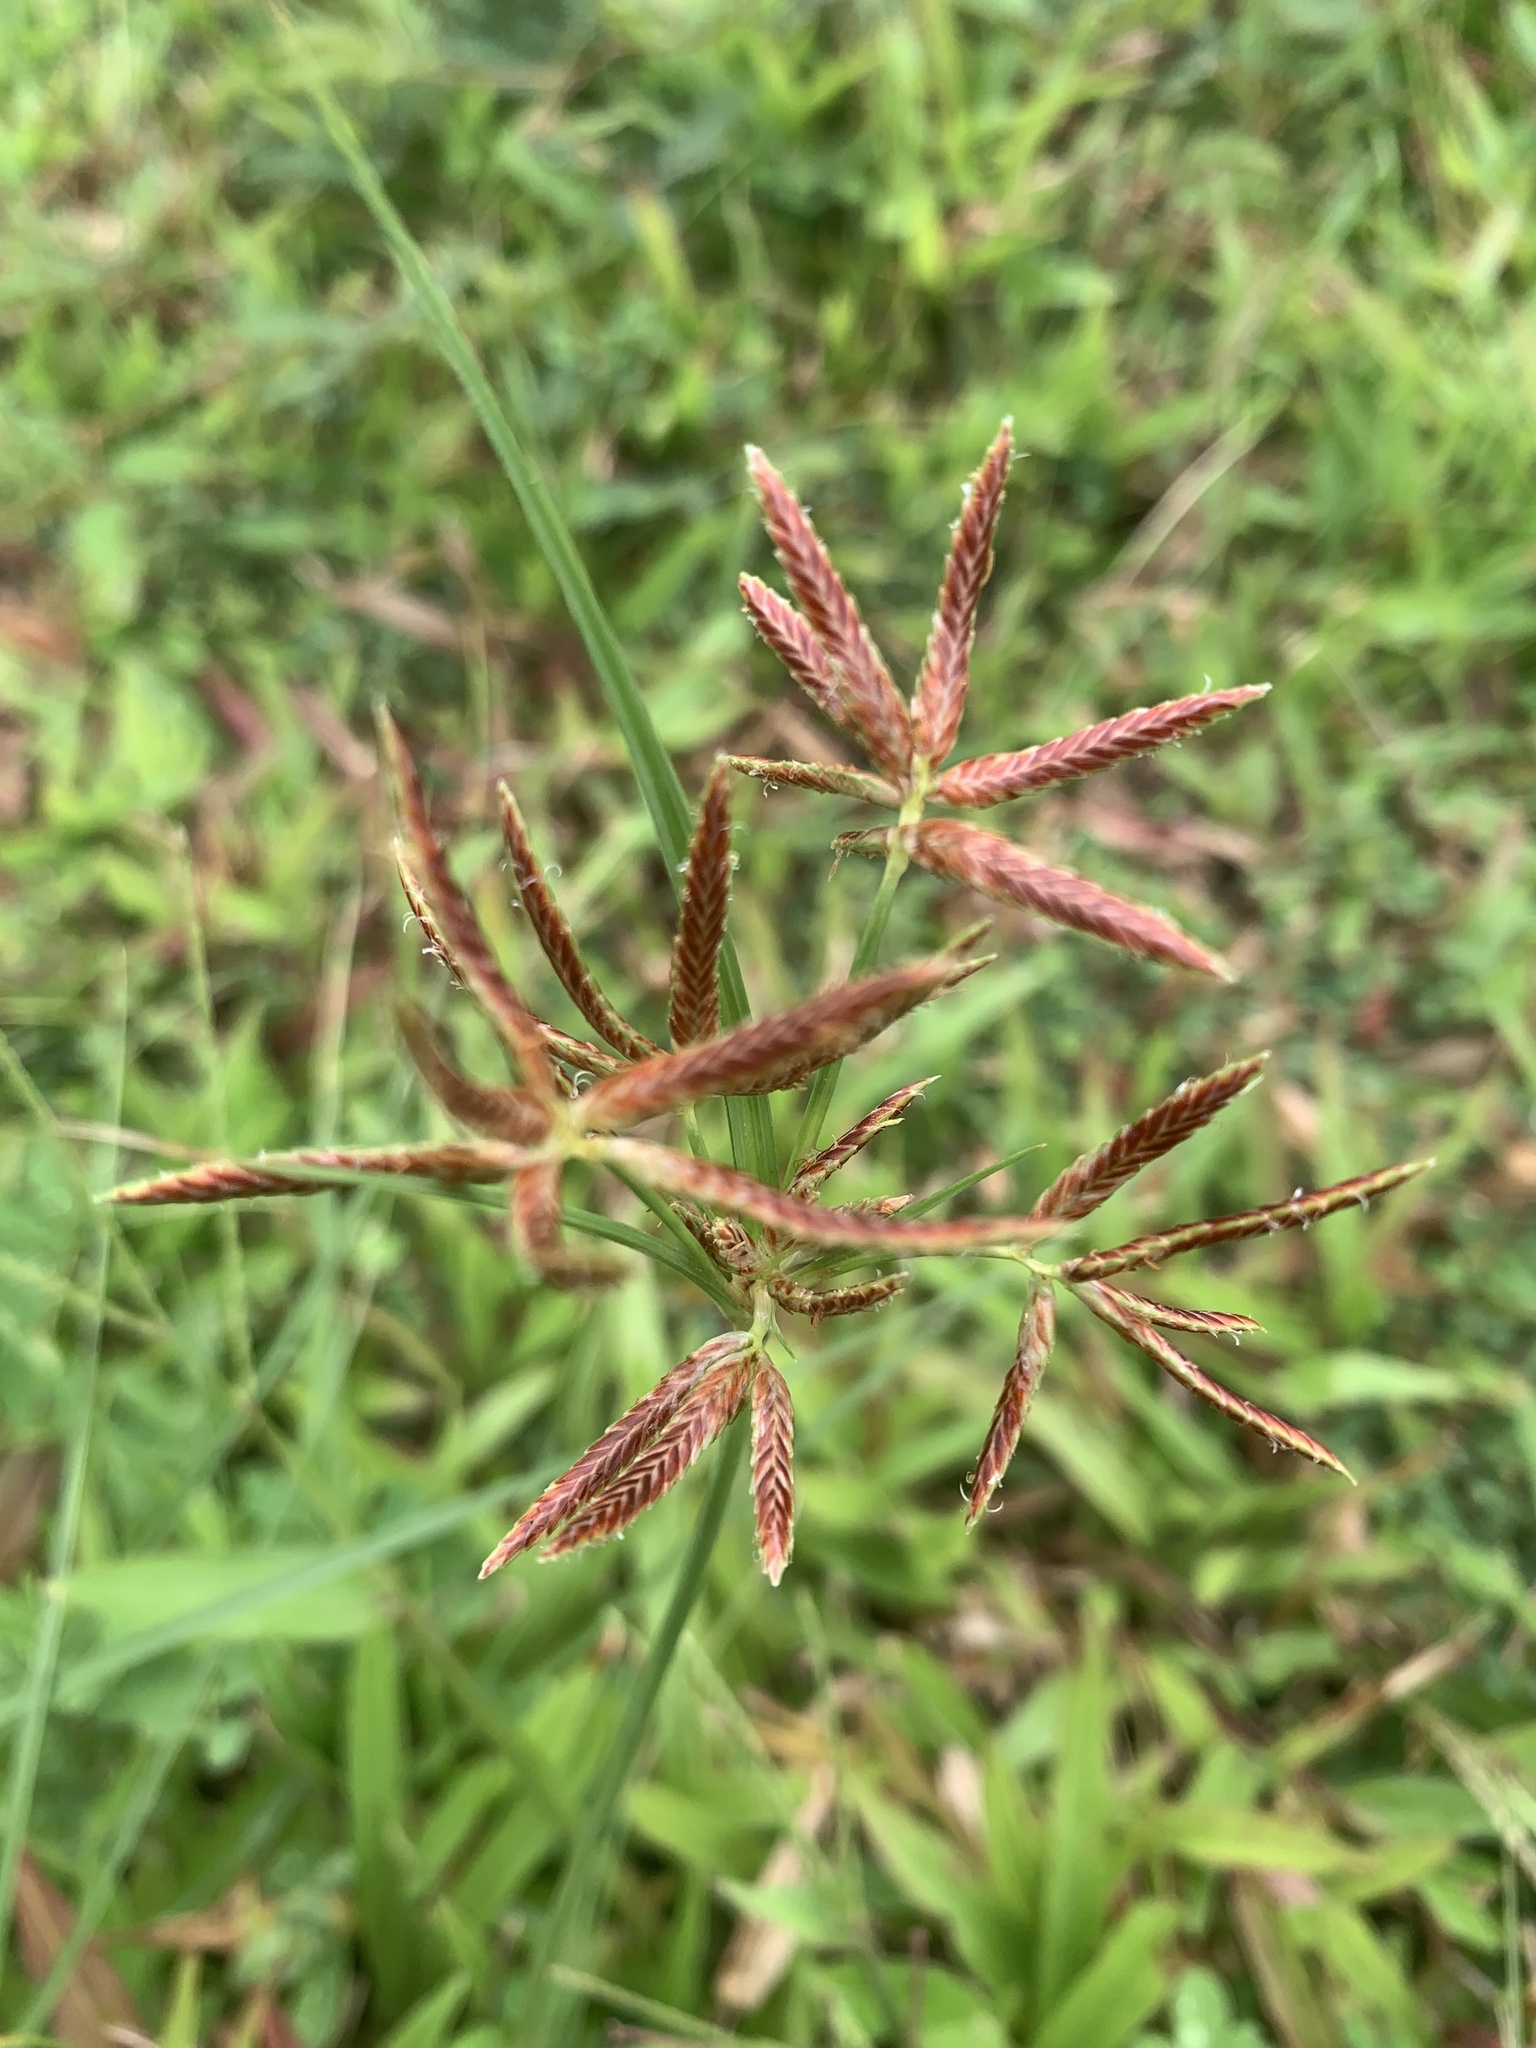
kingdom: Plantae
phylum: Tracheophyta
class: Liliopsida
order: Poales
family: Cyperaceae
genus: Cyperus
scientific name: Cyperus rotundus
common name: Nutgrass
